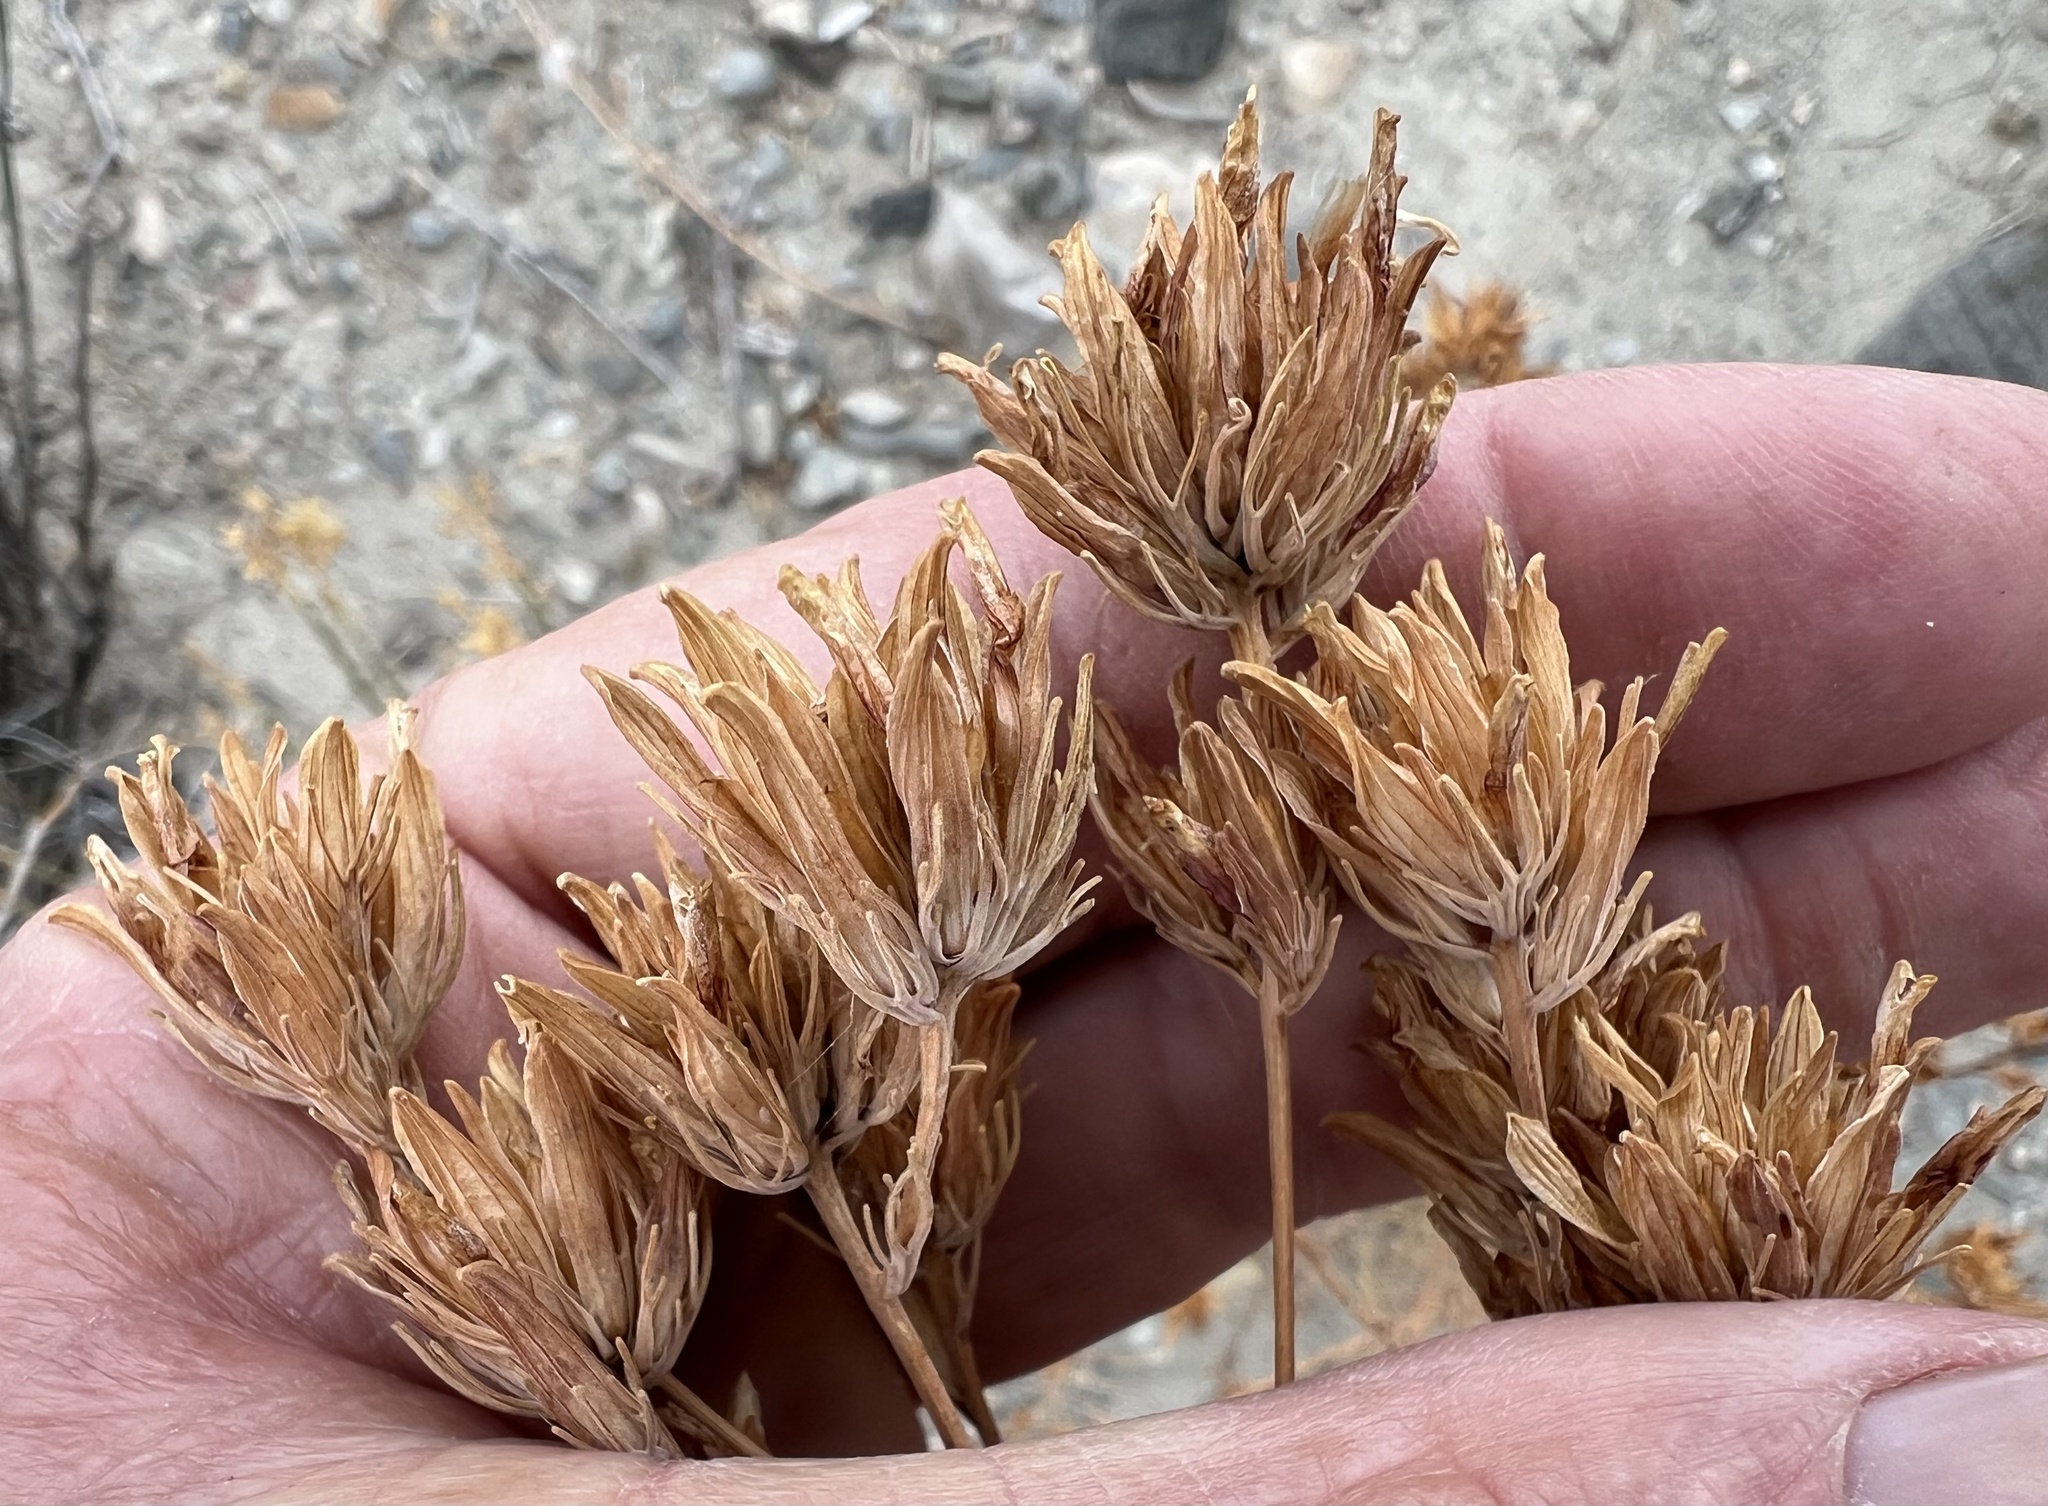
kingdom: Plantae
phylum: Tracheophyta
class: Magnoliopsida
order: Lamiales
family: Orobanchaceae
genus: Cordylanthus
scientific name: Cordylanthus ramosus
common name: Much-branched bird's-beak
